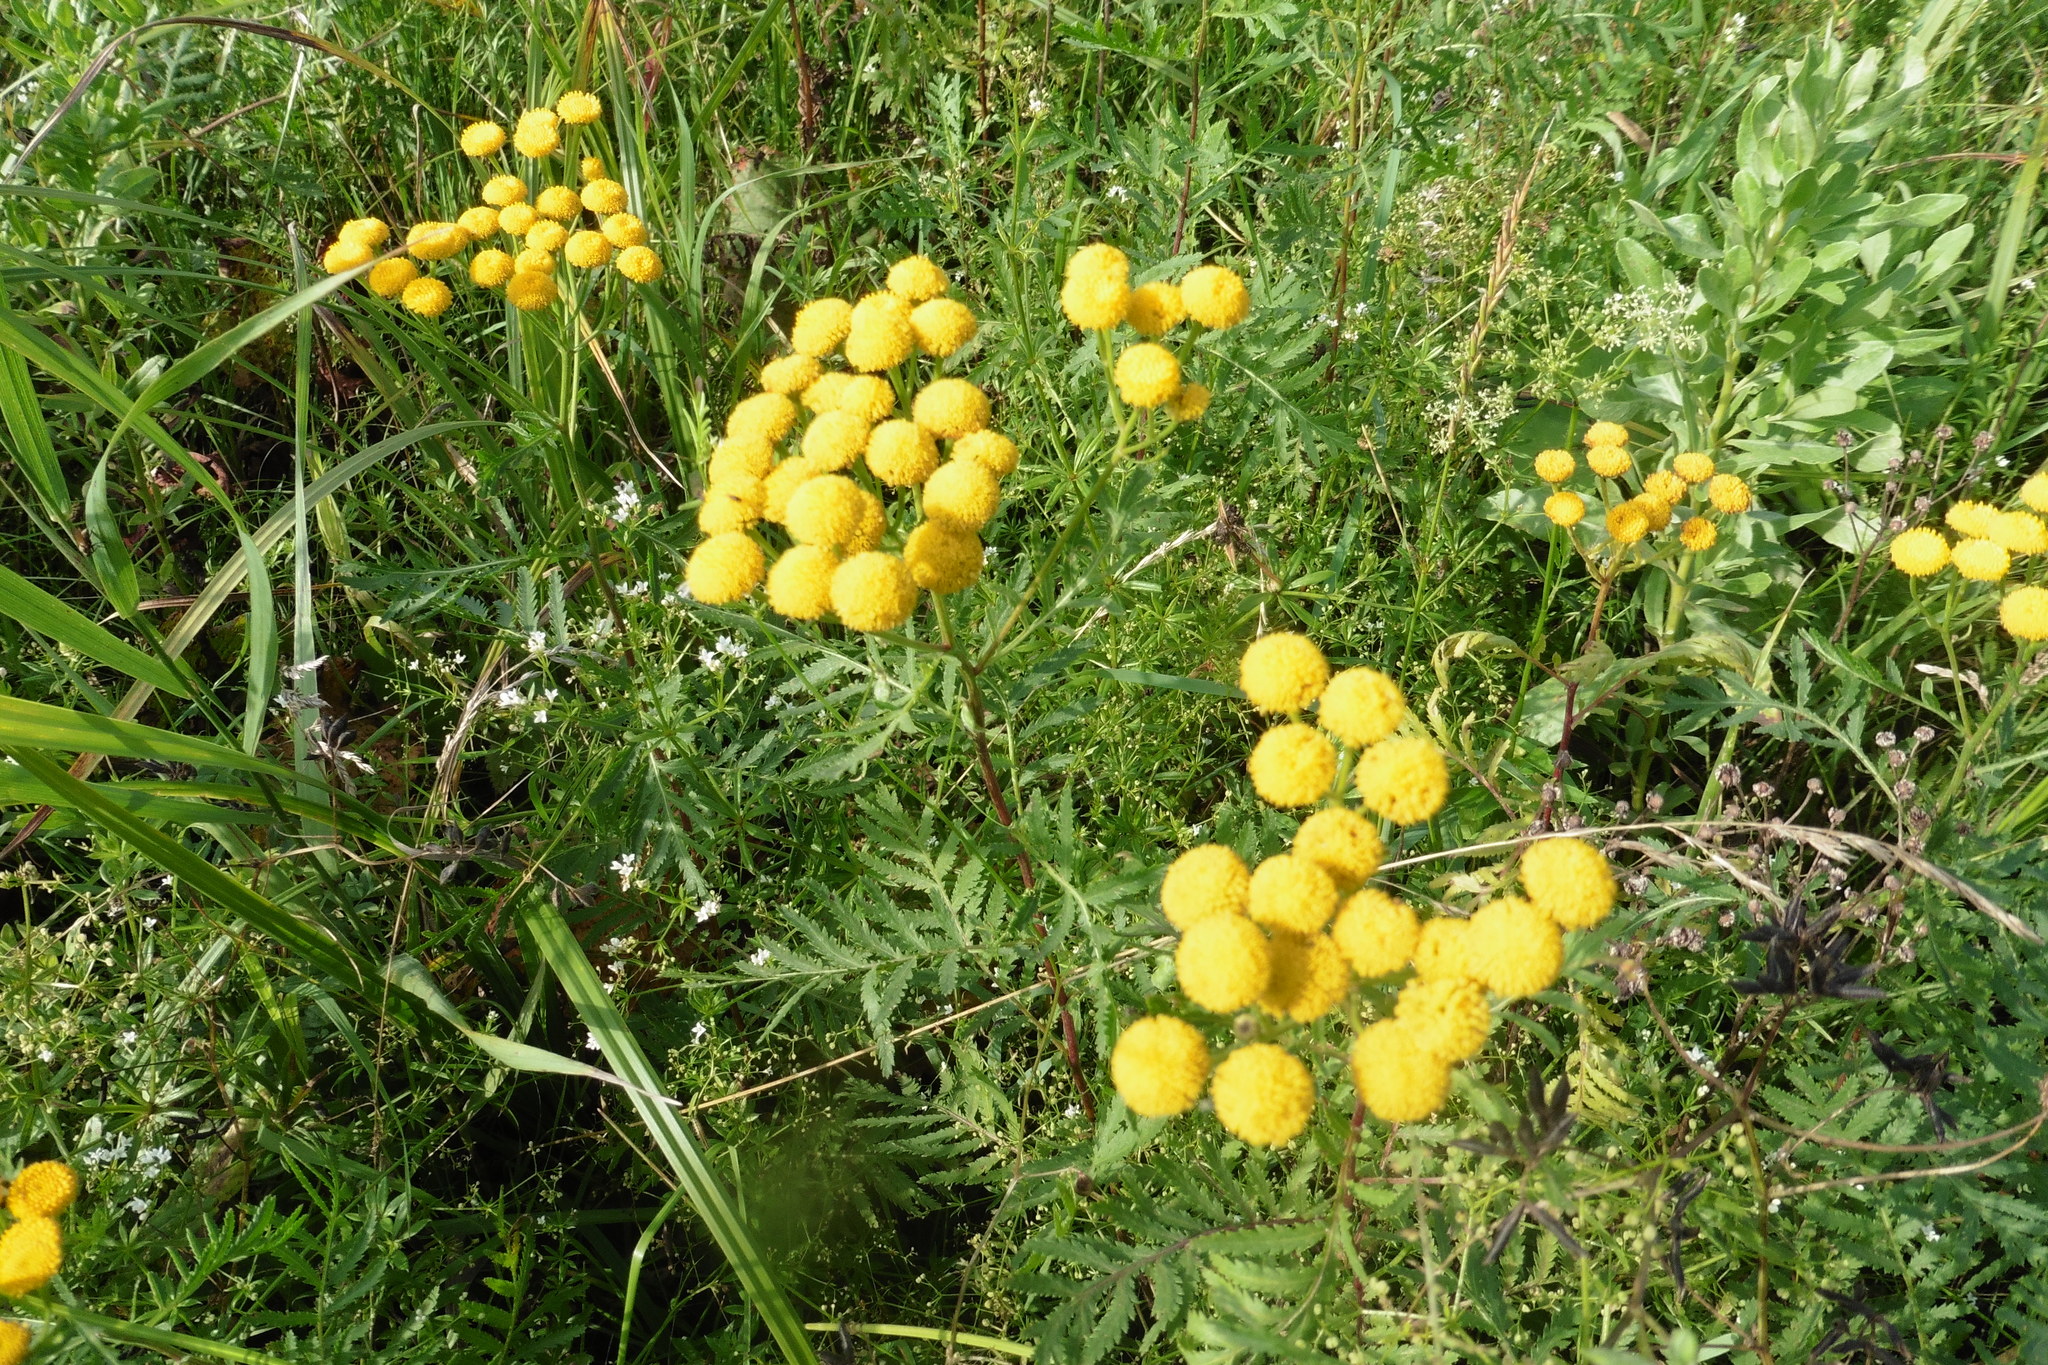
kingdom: Plantae
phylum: Tracheophyta
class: Magnoliopsida
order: Asterales
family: Asteraceae
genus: Tanacetum
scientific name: Tanacetum vulgare
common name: Common tansy
